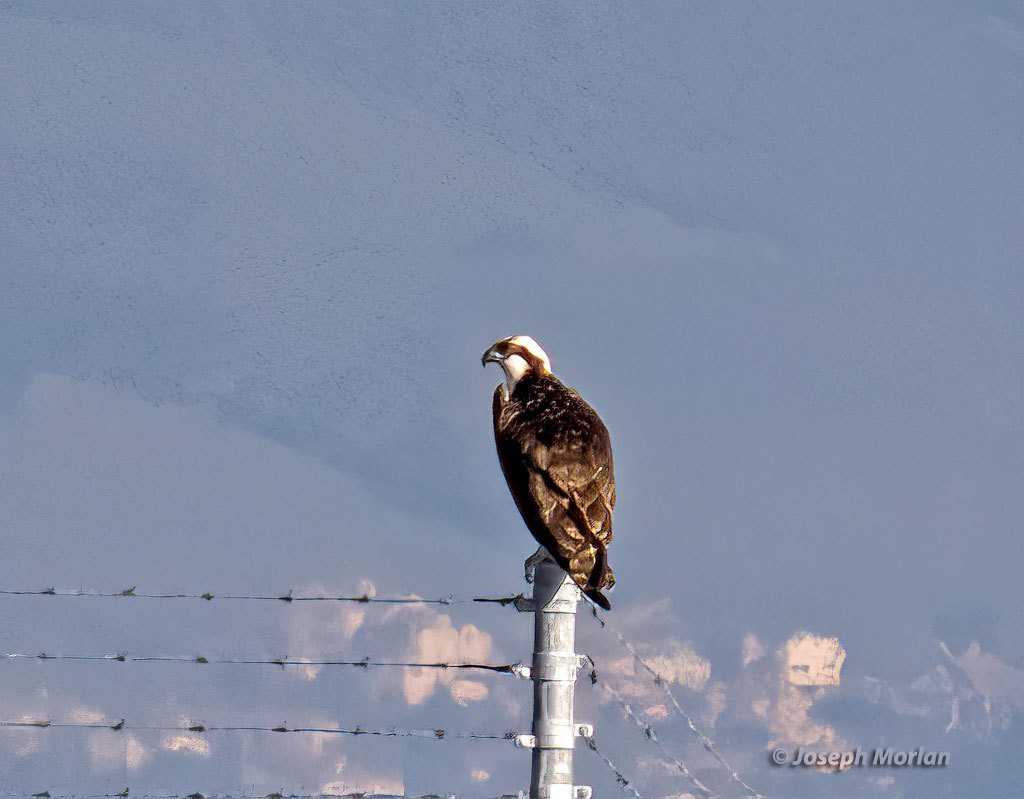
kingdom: Animalia
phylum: Chordata
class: Aves
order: Accipitriformes
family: Pandionidae
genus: Pandion
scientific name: Pandion haliaetus
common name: Osprey
